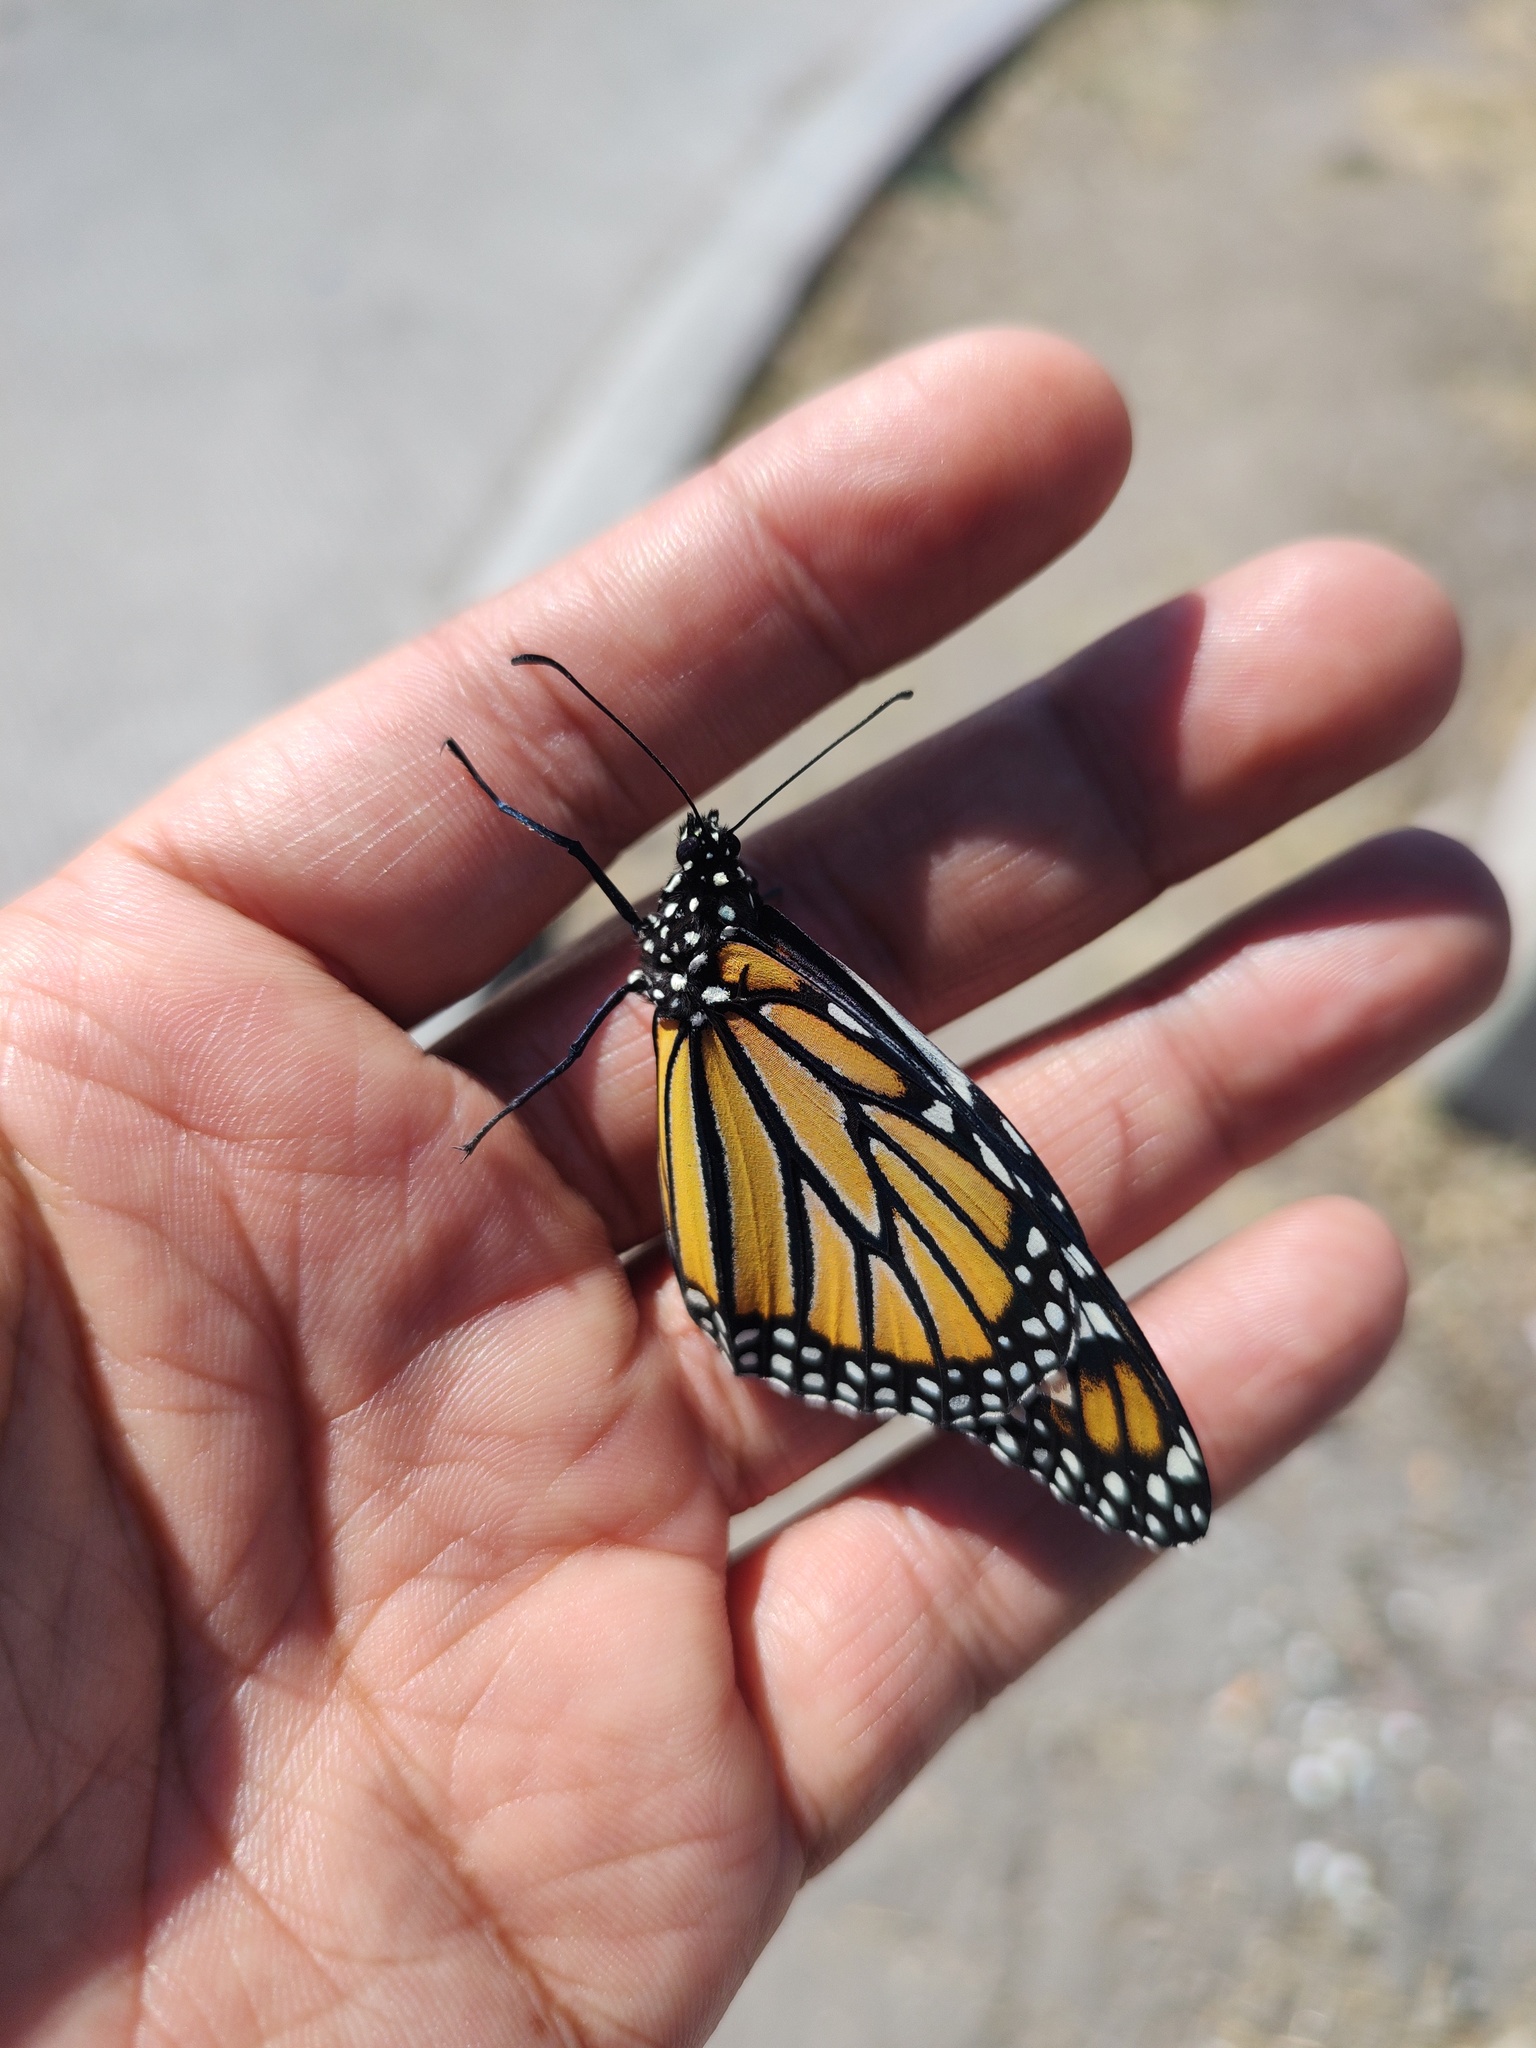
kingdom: Animalia
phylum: Arthropoda
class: Insecta
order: Lepidoptera
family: Nymphalidae
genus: Danaus
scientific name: Danaus plexippus
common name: Monarch
